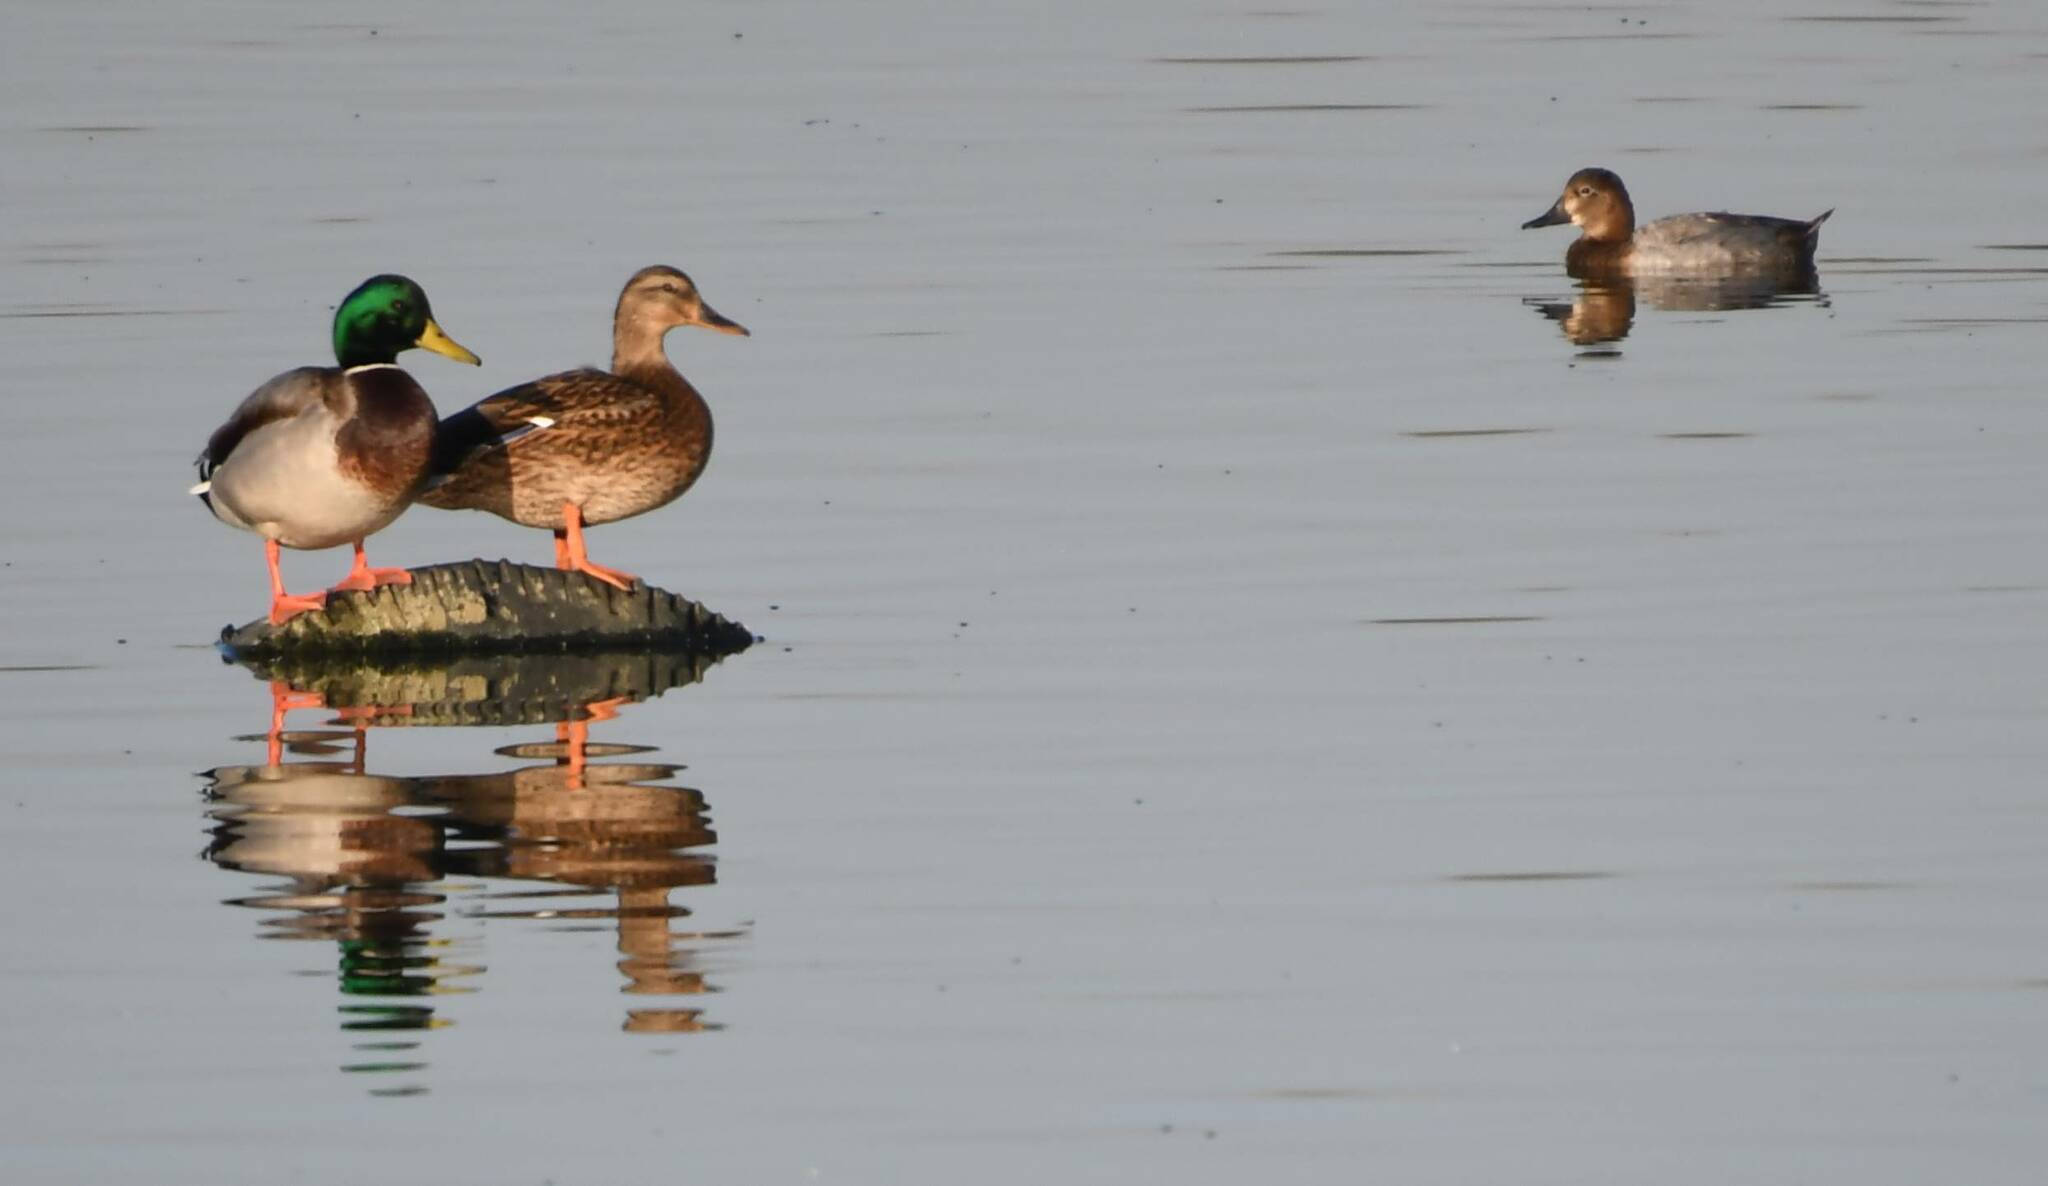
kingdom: Animalia
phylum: Chordata
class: Aves
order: Anseriformes
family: Anatidae
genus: Anas
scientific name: Anas platyrhynchos
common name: Mallard
